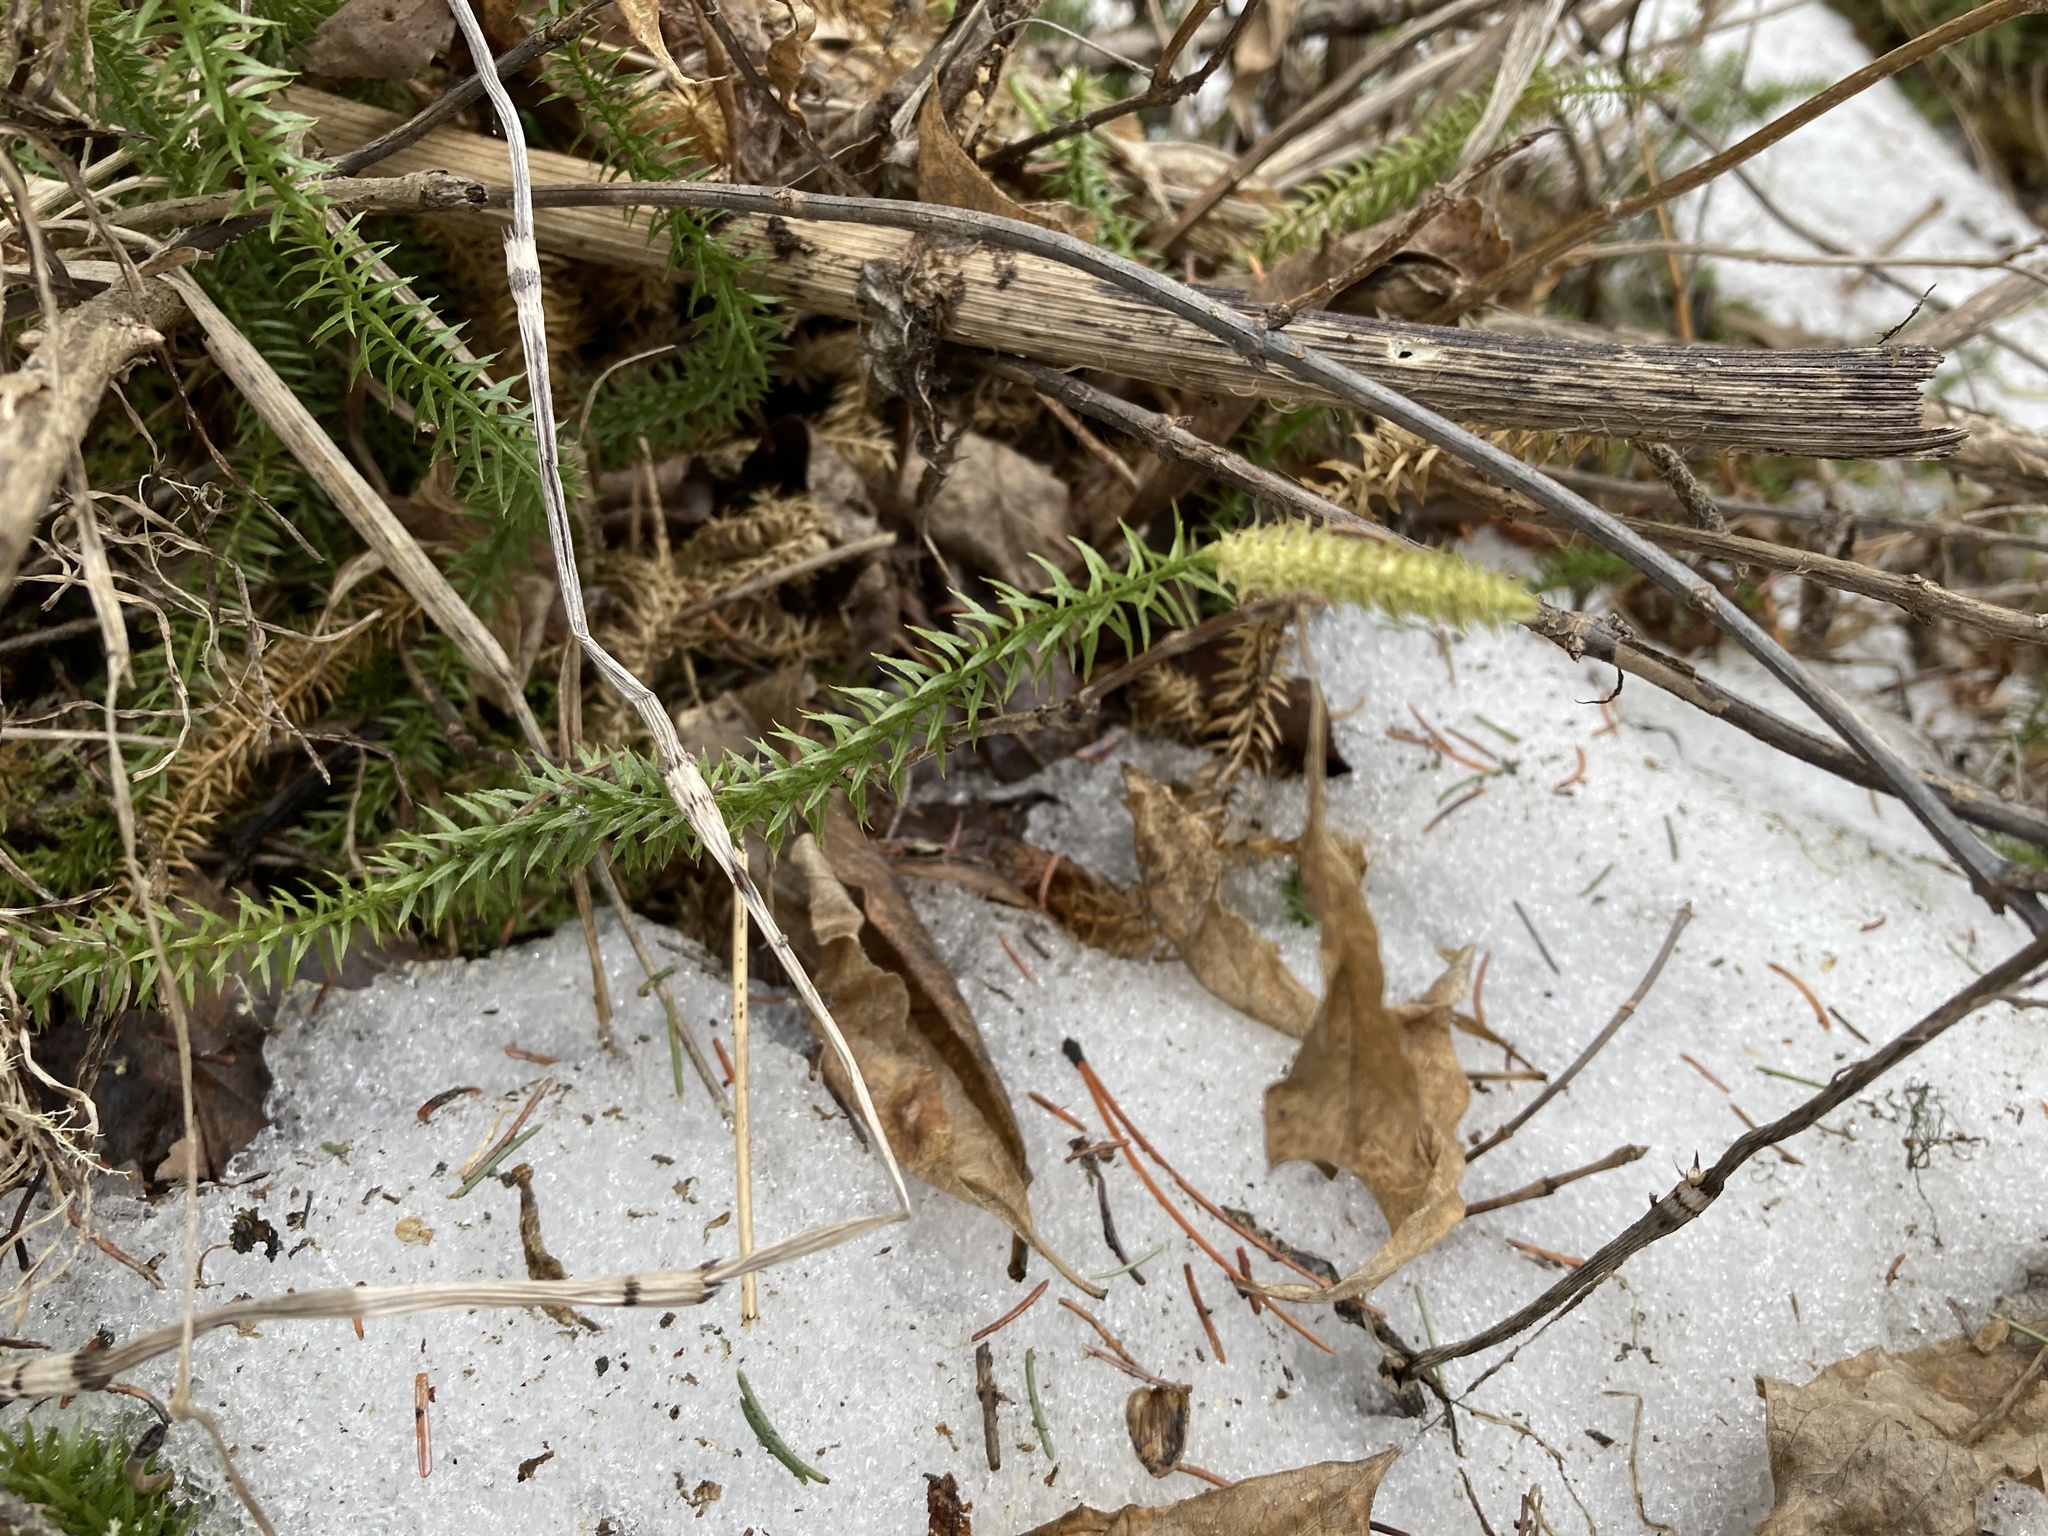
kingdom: Plantae
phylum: Tracheophyta
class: Lycopodiopsida
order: Lycopodiales
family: Lycopodiaceae
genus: Spinulum
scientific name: Spinulum annotinum
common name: Interrupted club-moss
